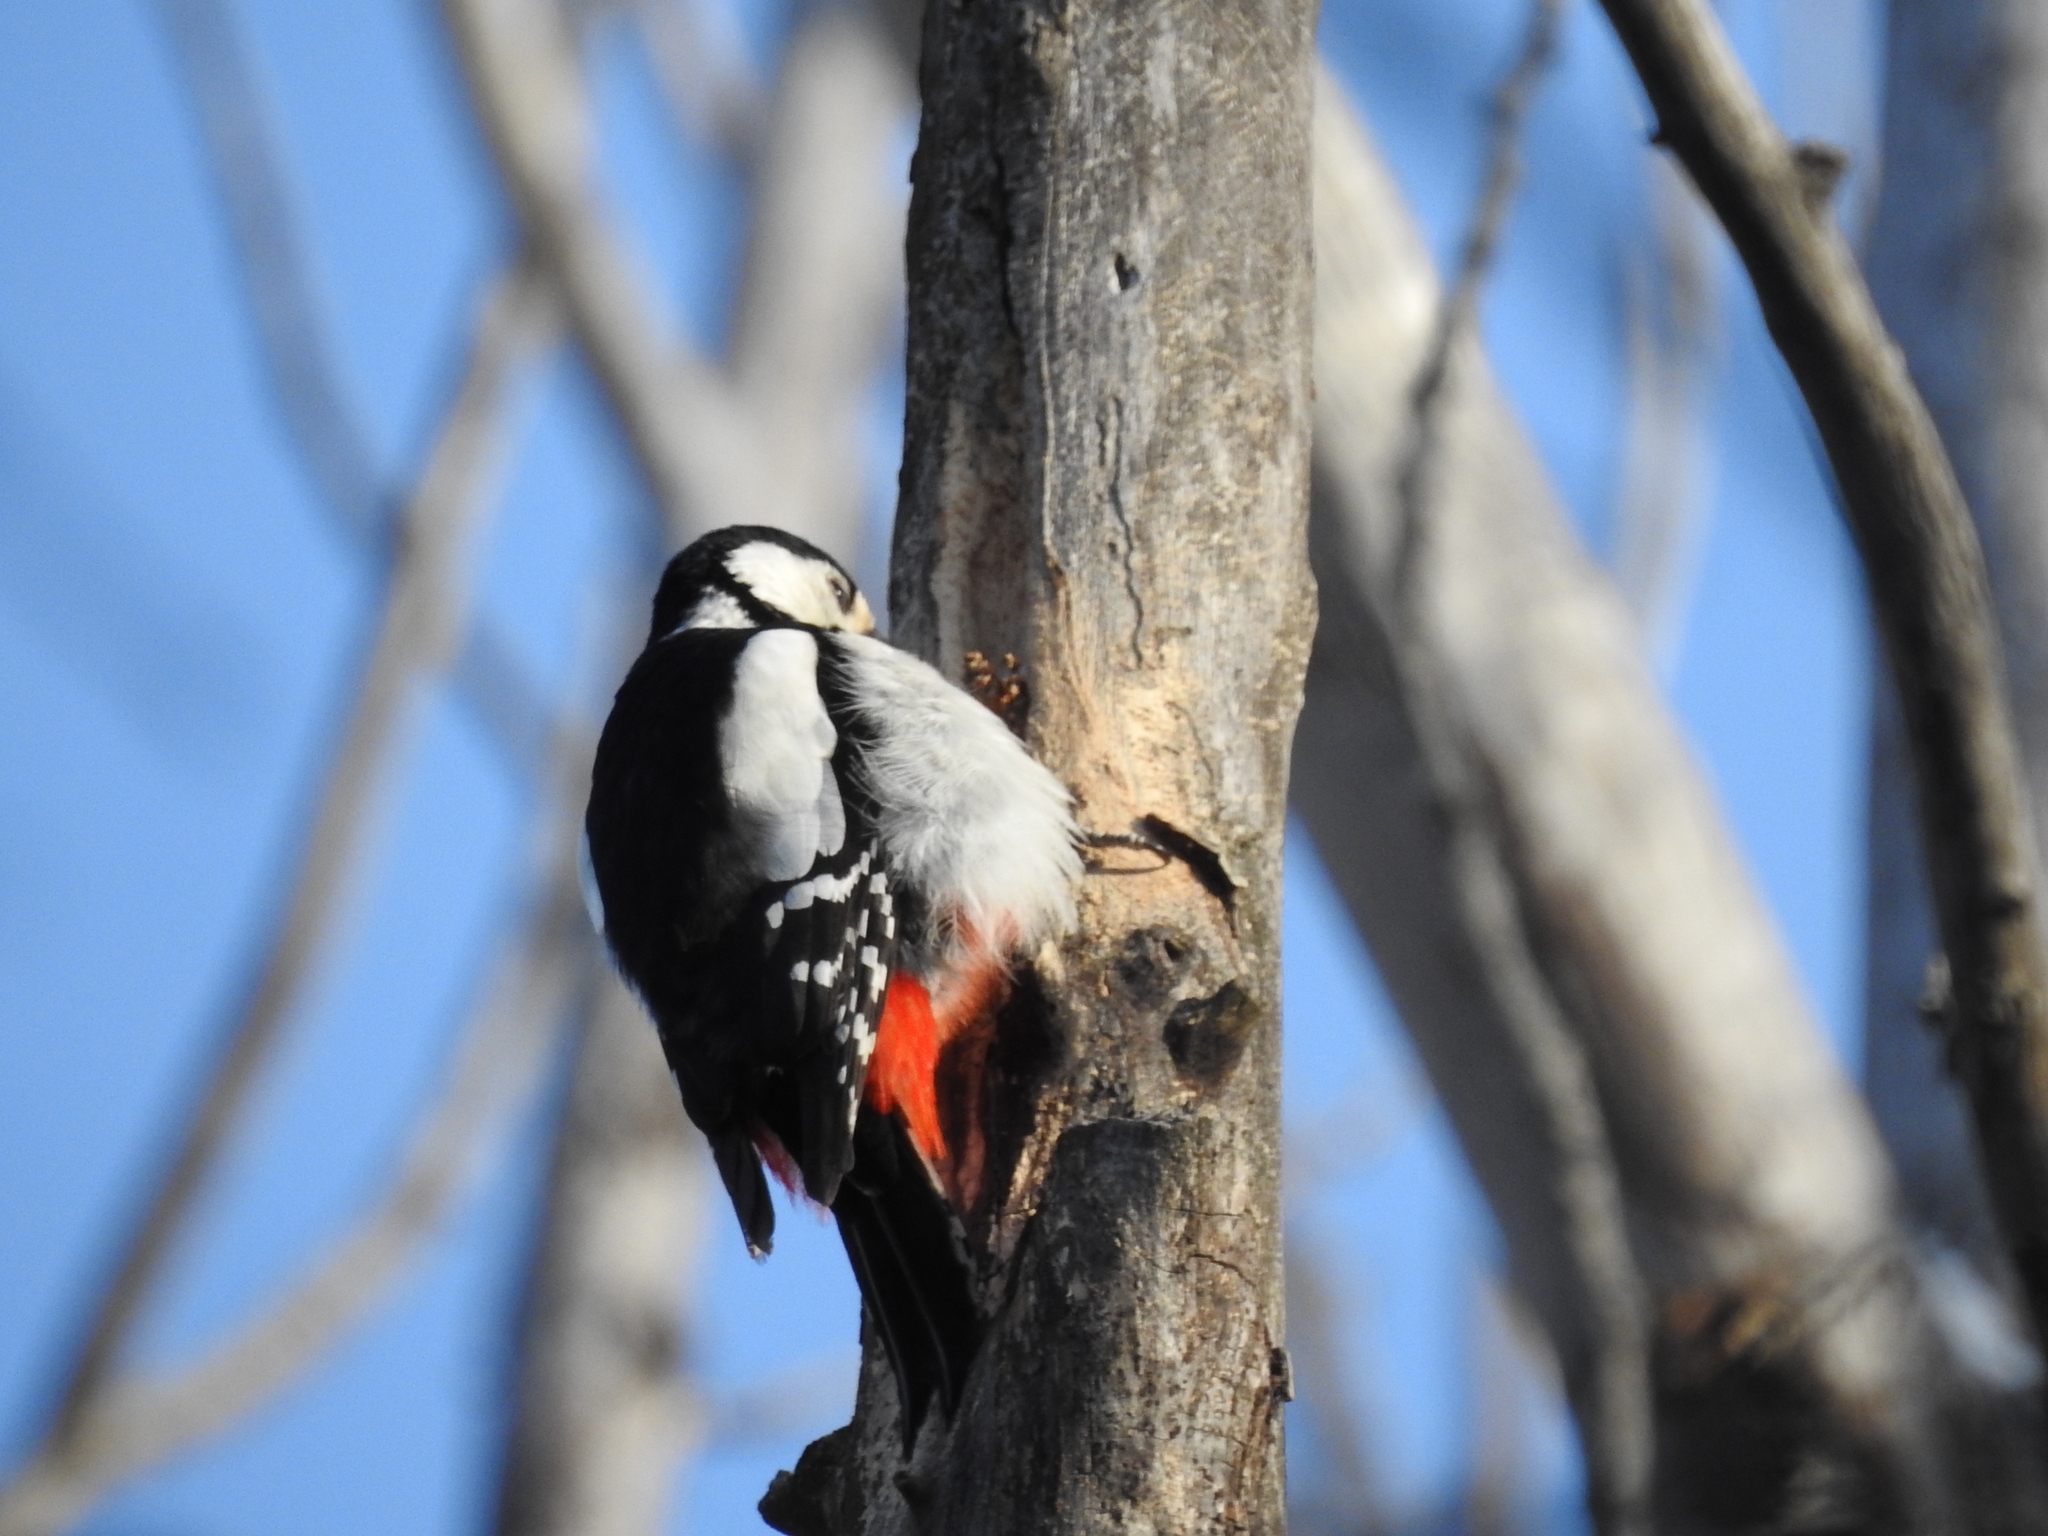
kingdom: Animalia
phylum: Chordata
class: Aves
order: Piciformes
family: Picidae
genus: Dendrocopos
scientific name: Dendrocopos major
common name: Great spotted woodpecker
